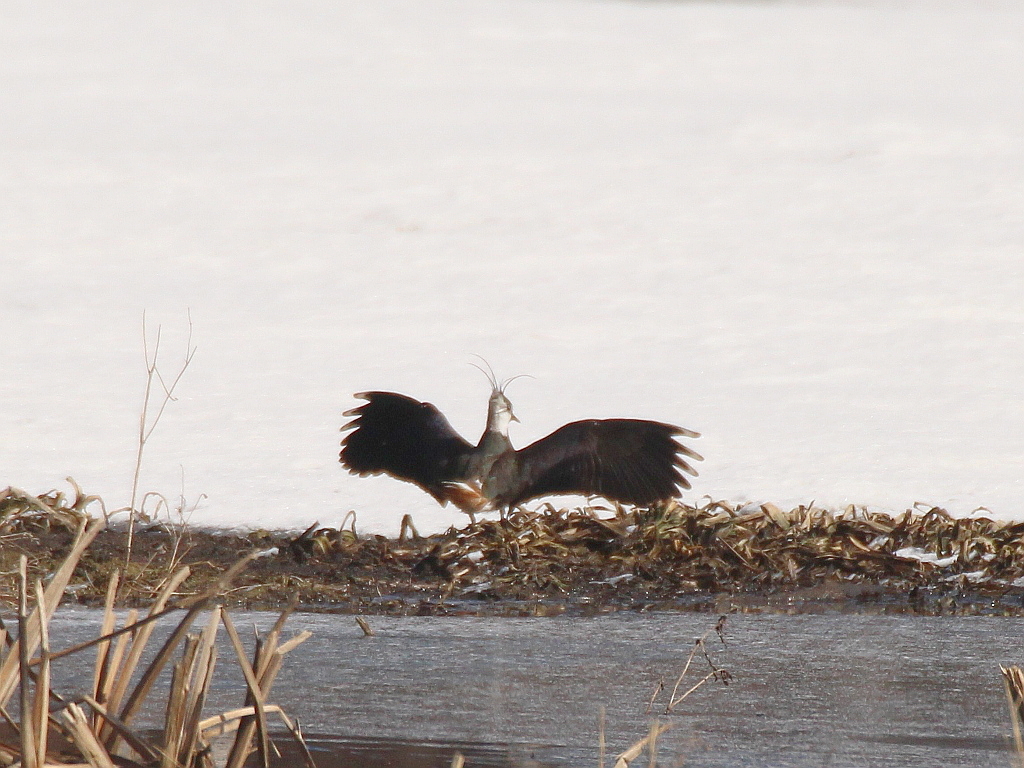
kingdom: Animalia
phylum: Chordata
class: Aves
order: Charadriiformes
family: Charadriidae
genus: Vanellus
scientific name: Vanellus vanellus
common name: Northern lapwing
